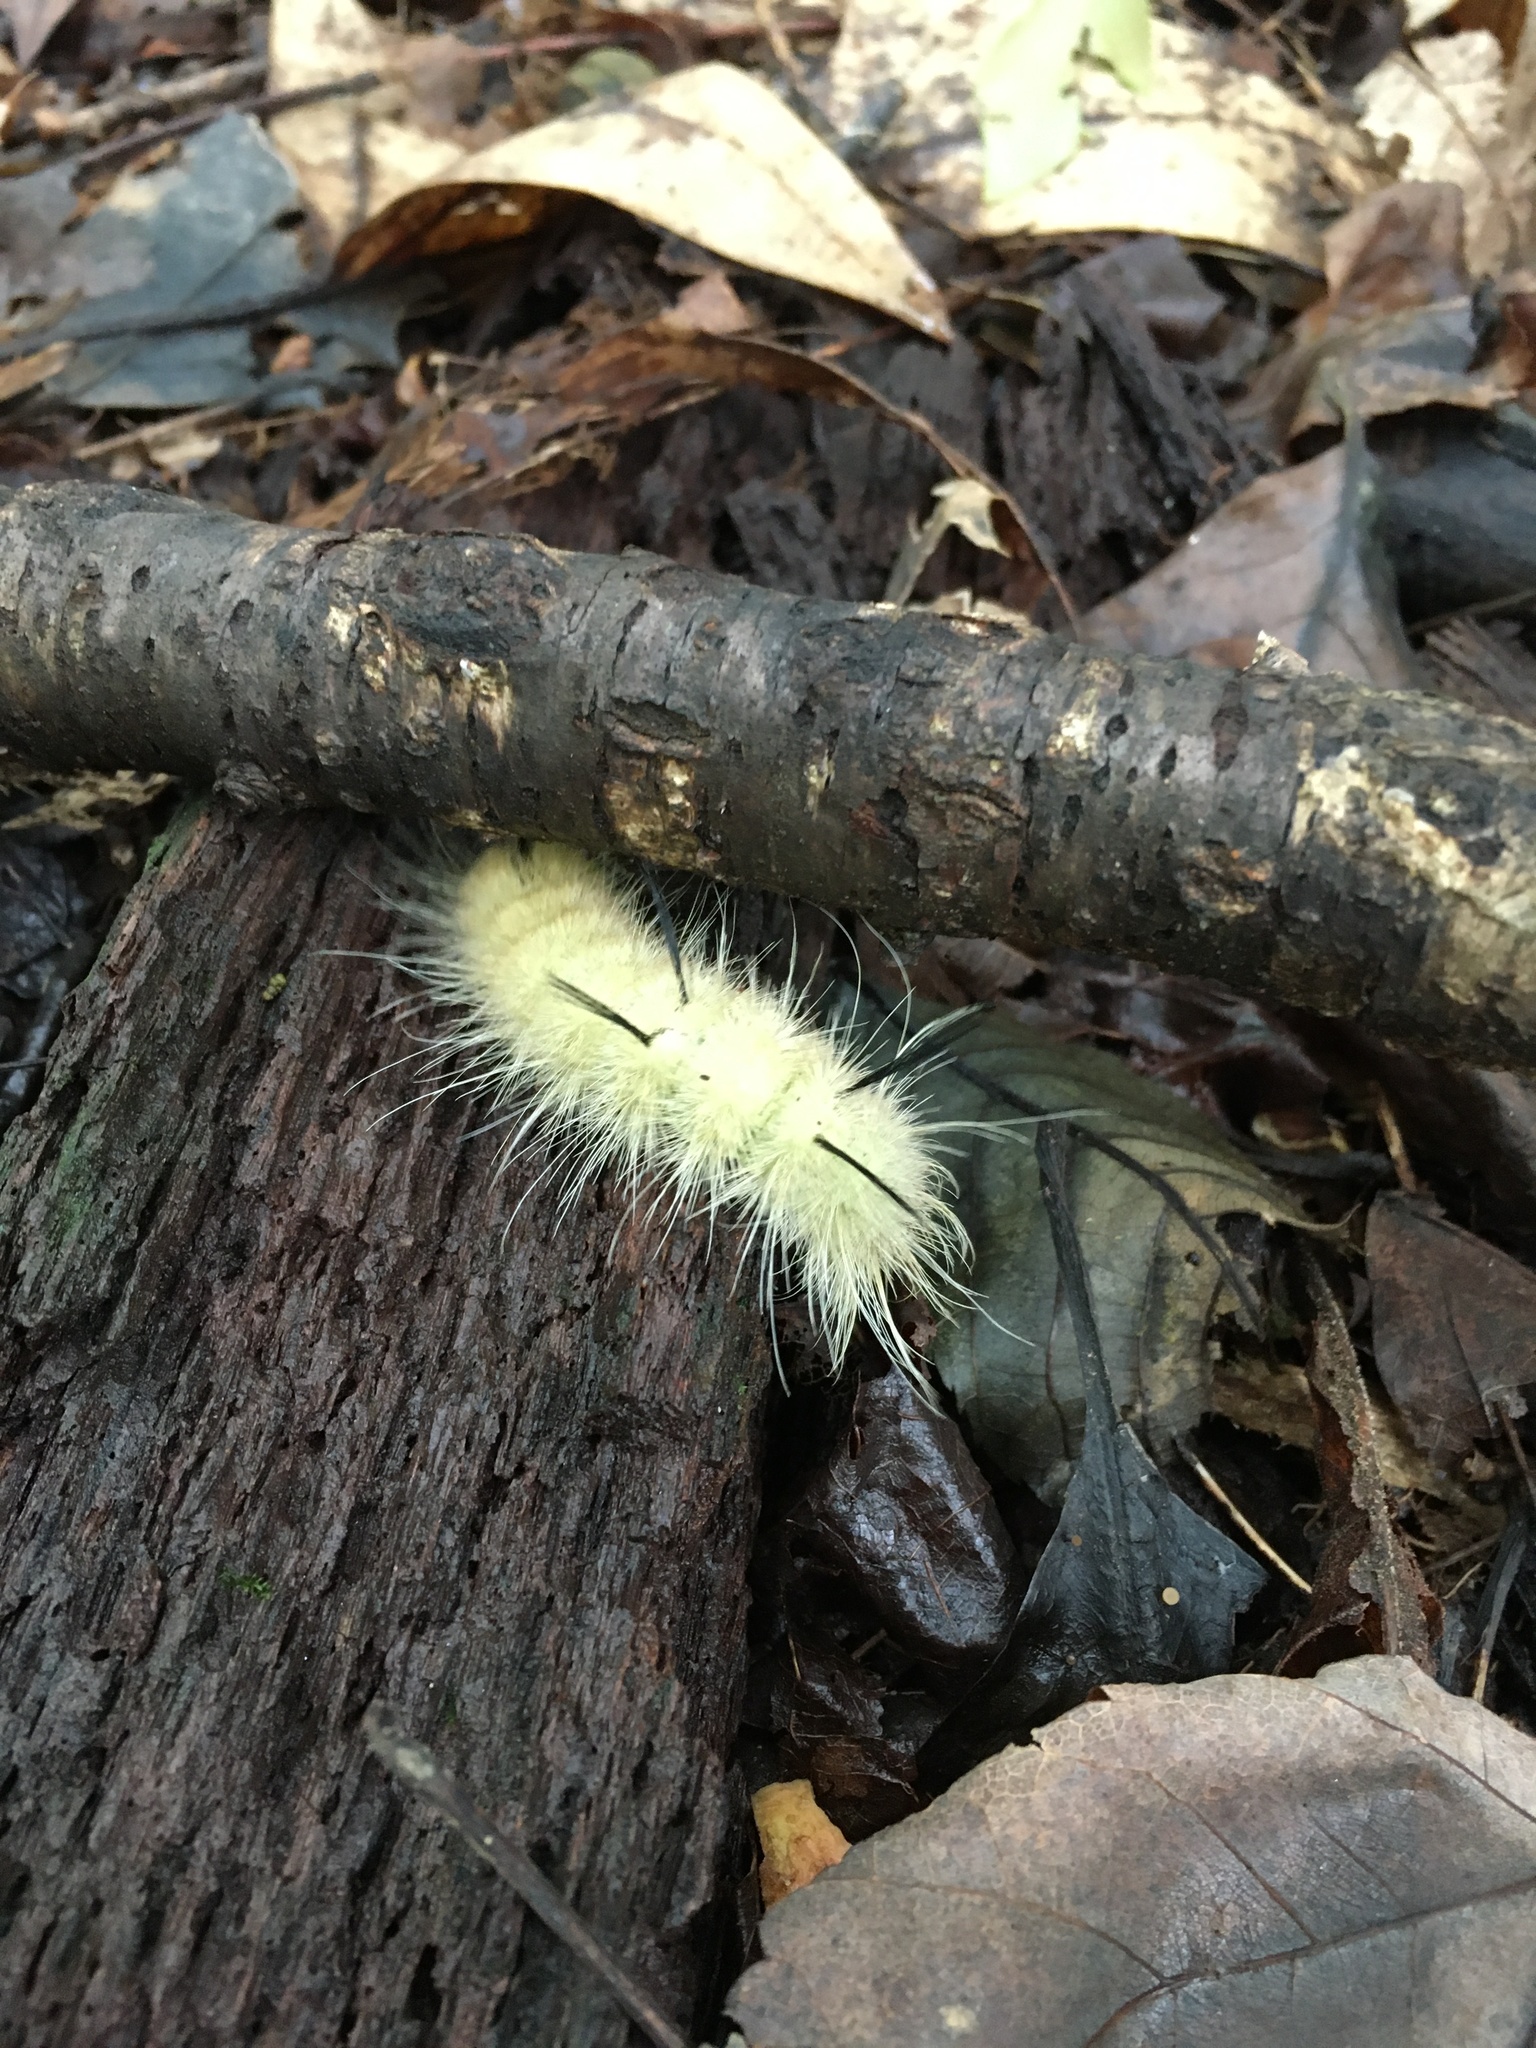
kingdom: Animalia
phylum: Arthropoda
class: Insecta
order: Lepidoptera
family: Noctuidae
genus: Acronicta
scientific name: Acronicta americana
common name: American dagger
